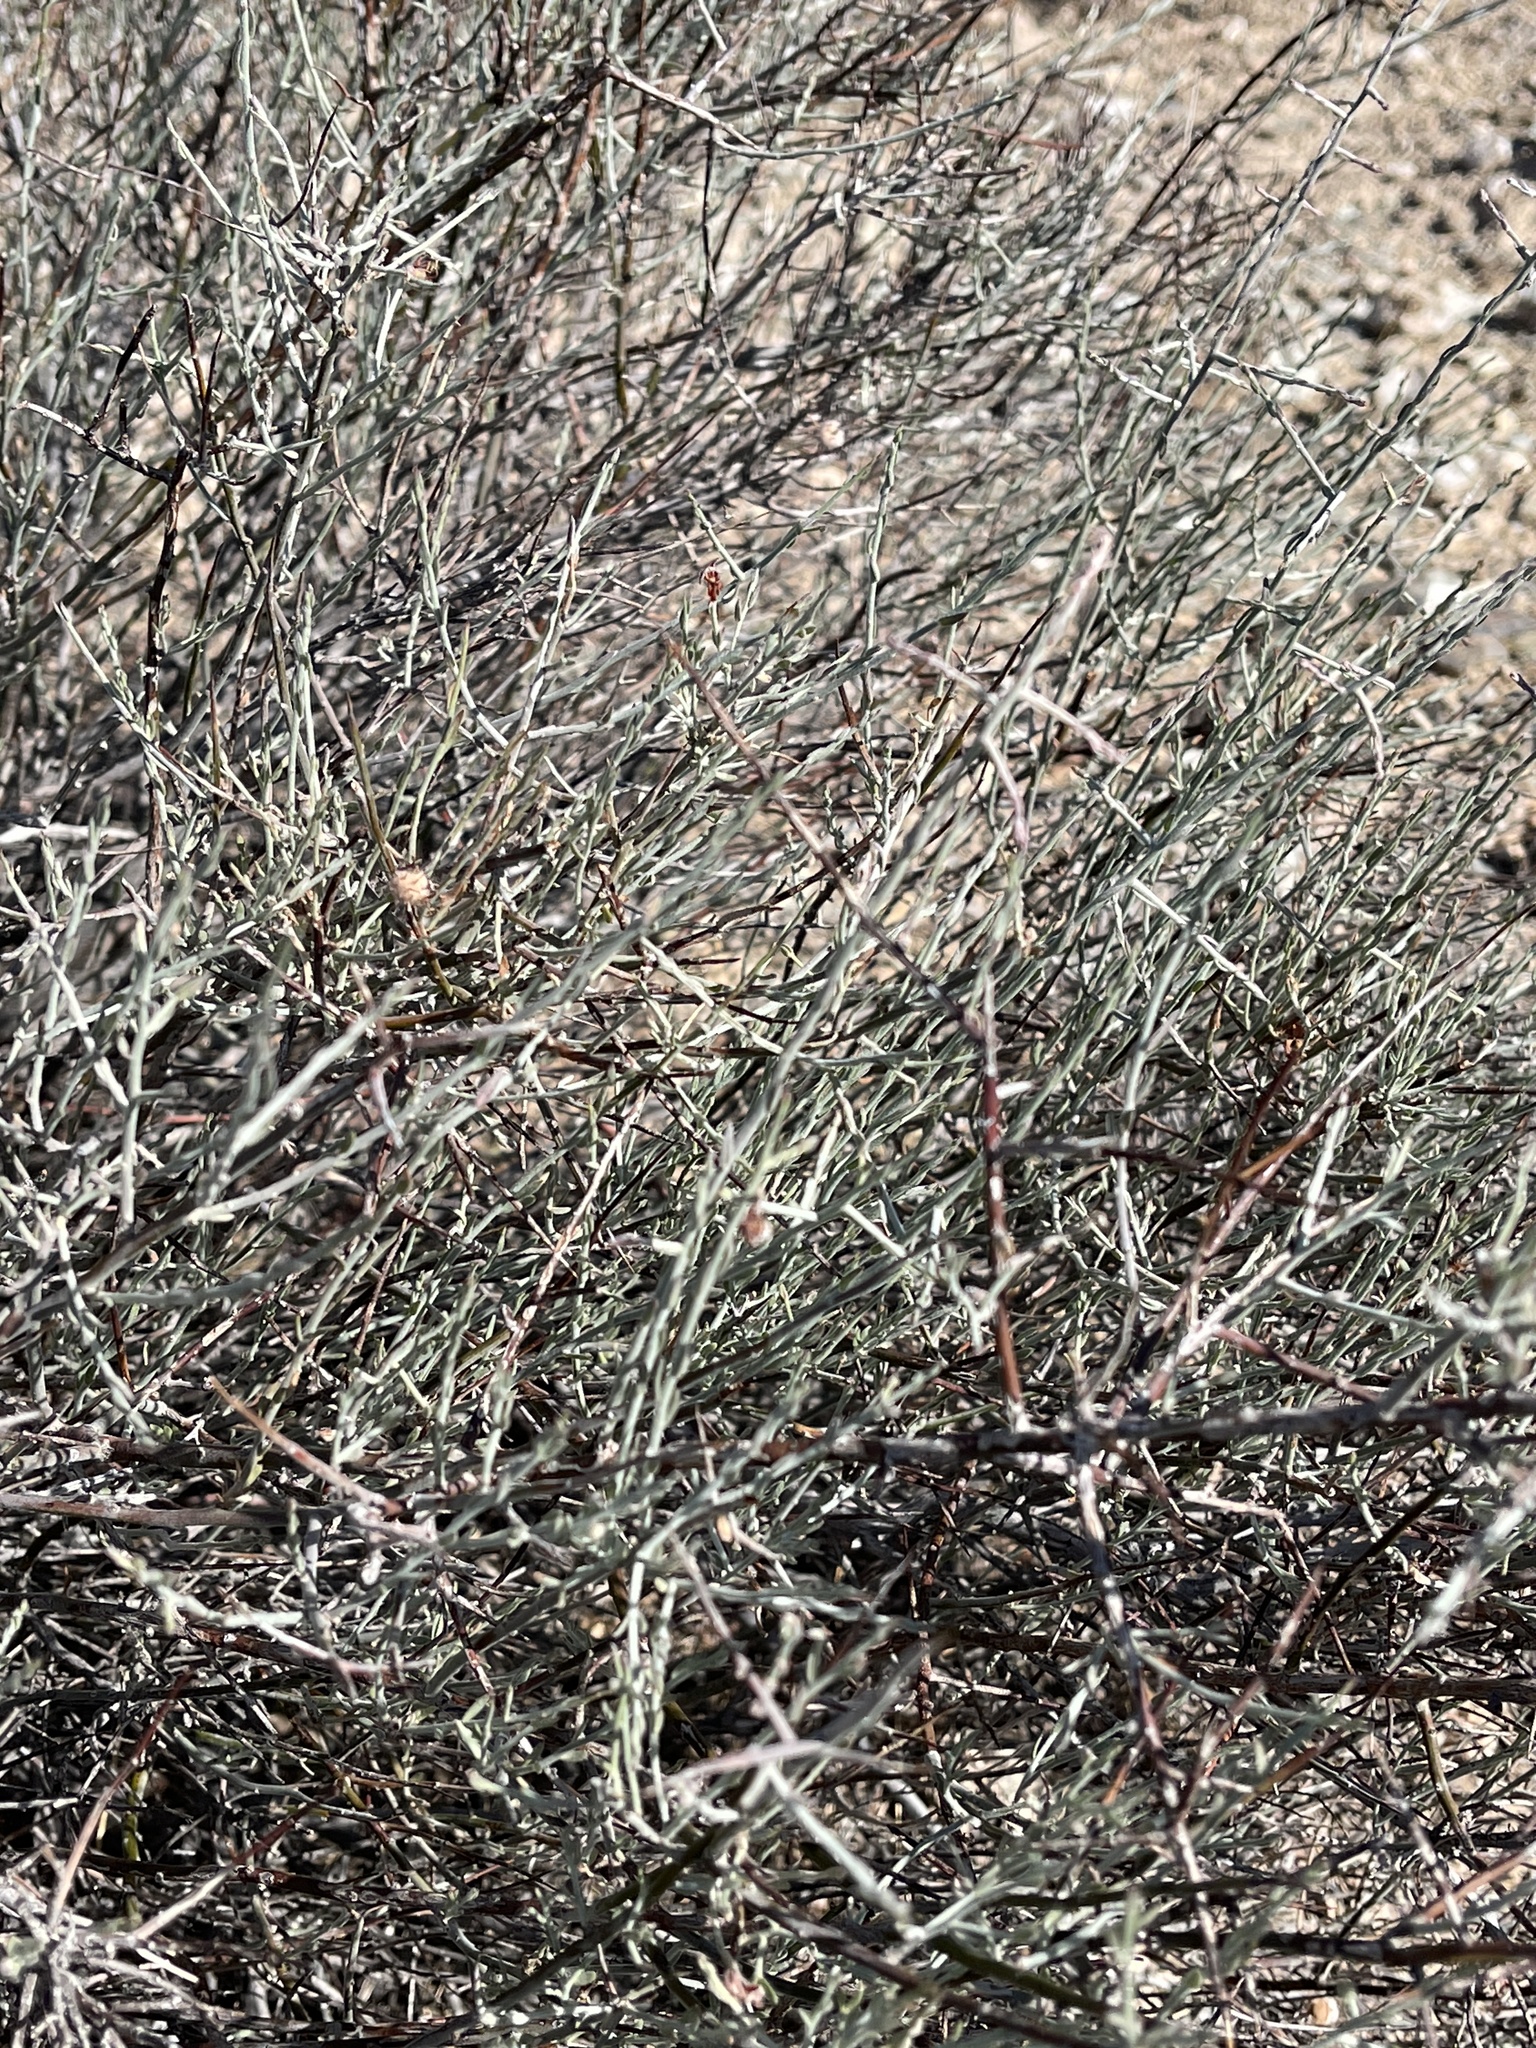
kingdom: Plantae
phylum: Tracheophyta
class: Magnoliopsida
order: Zygophyllales
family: Krameriaceae
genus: Krameria
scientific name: Krameria bicolor
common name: White ratany
